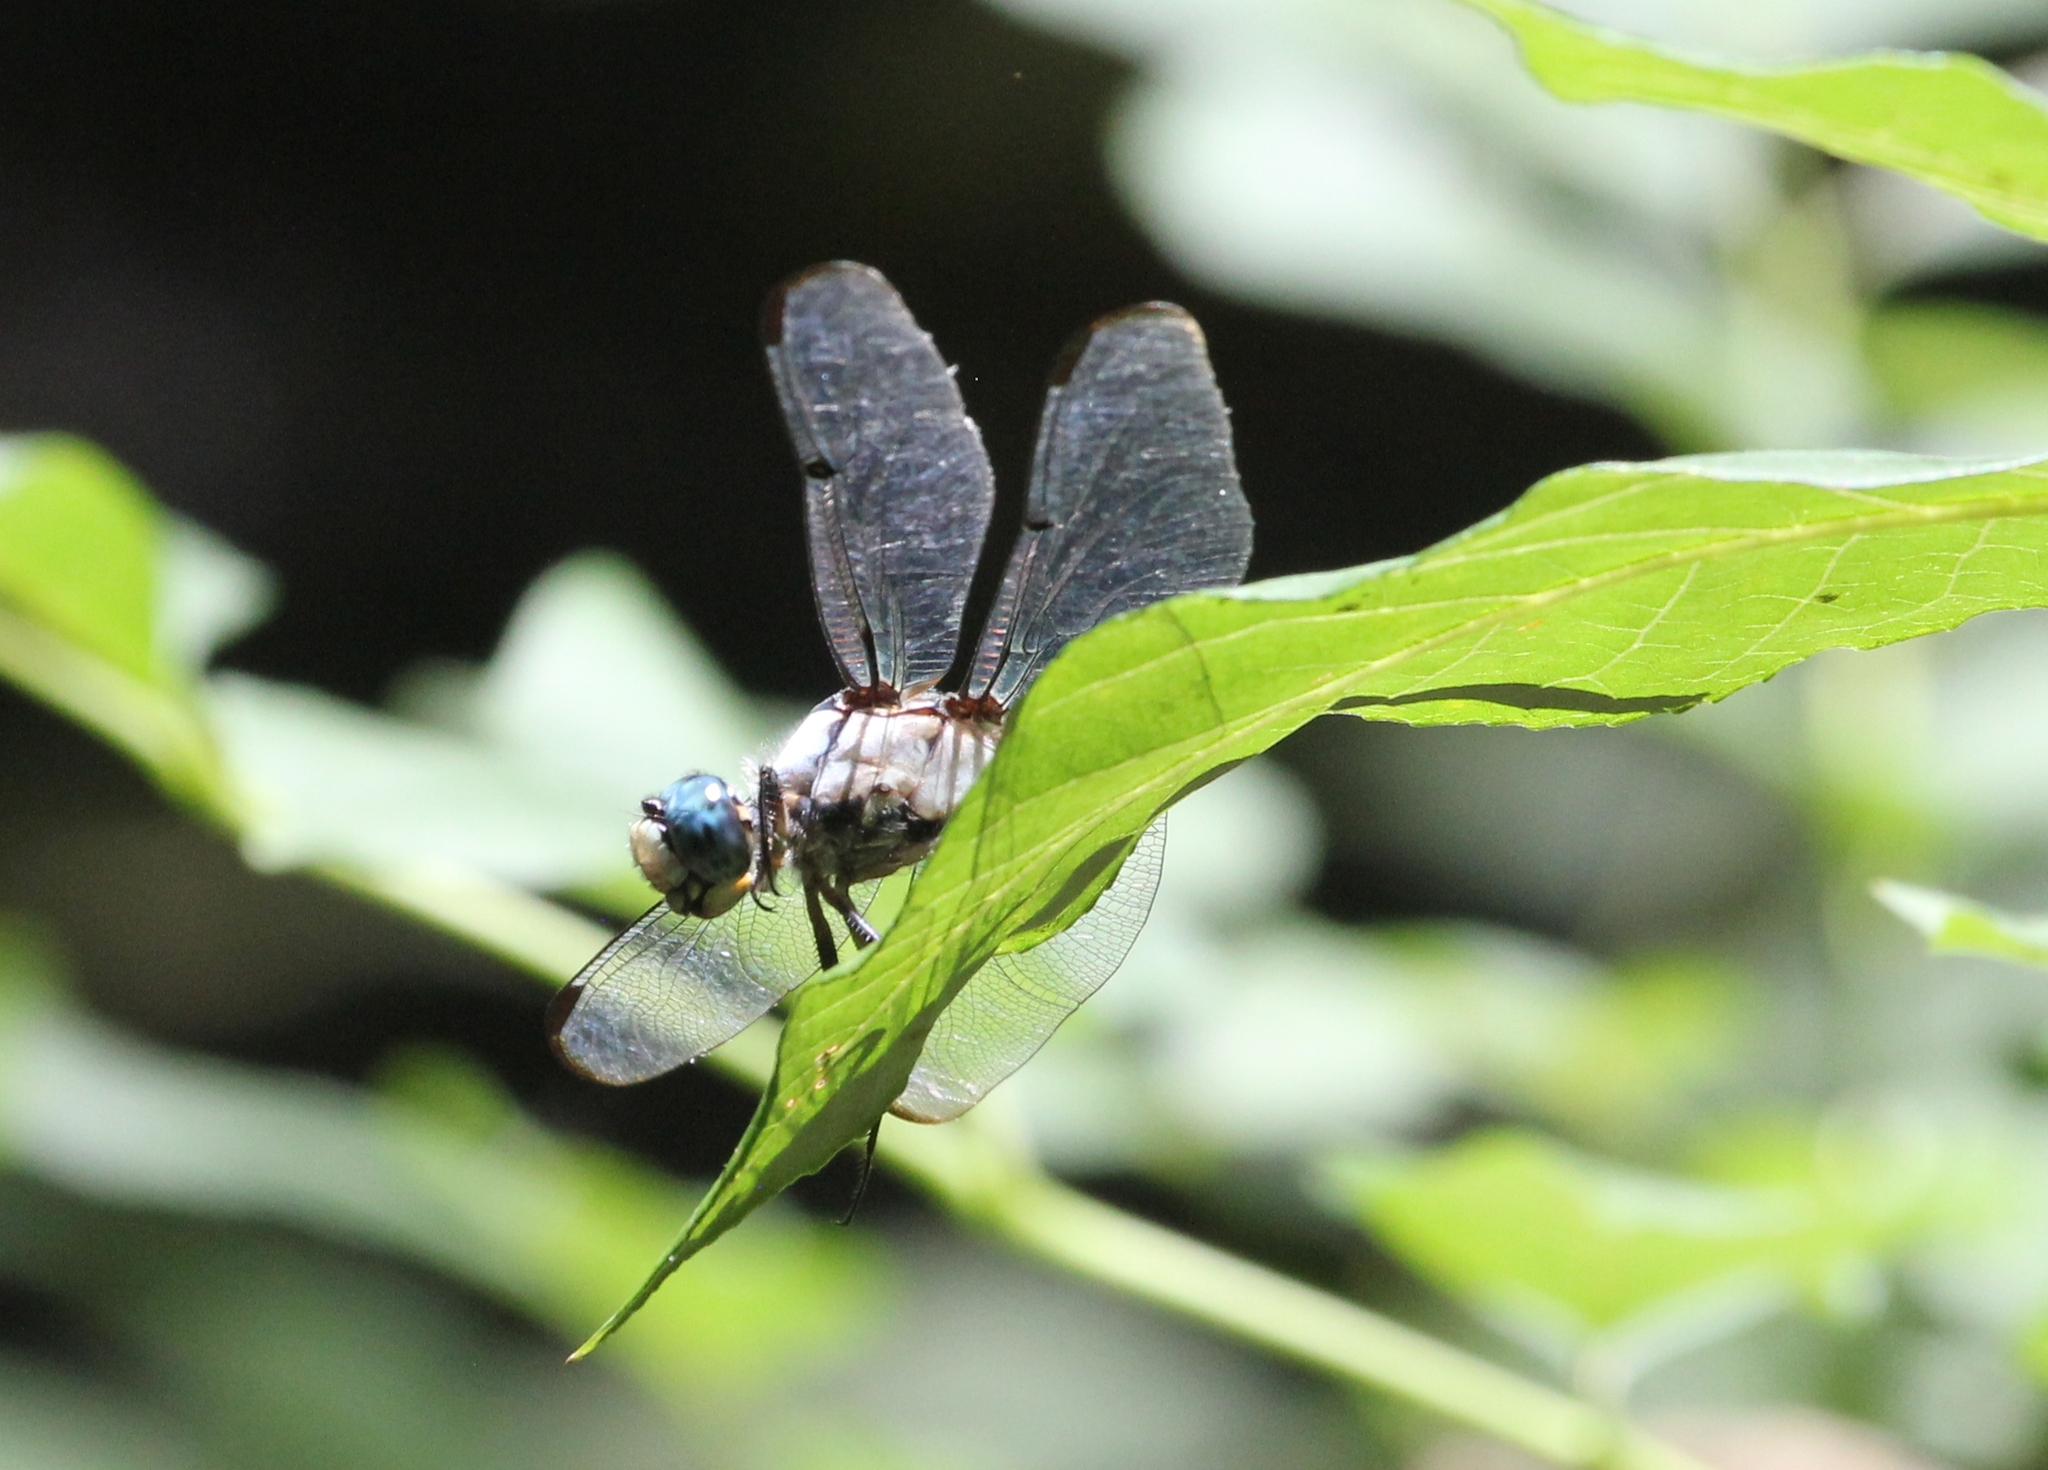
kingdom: Animalia
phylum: Arthropoda
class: Insecta
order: Odonata
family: Libellulidae
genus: Libellula
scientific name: Libellula vibrans
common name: Great blue skimmer
